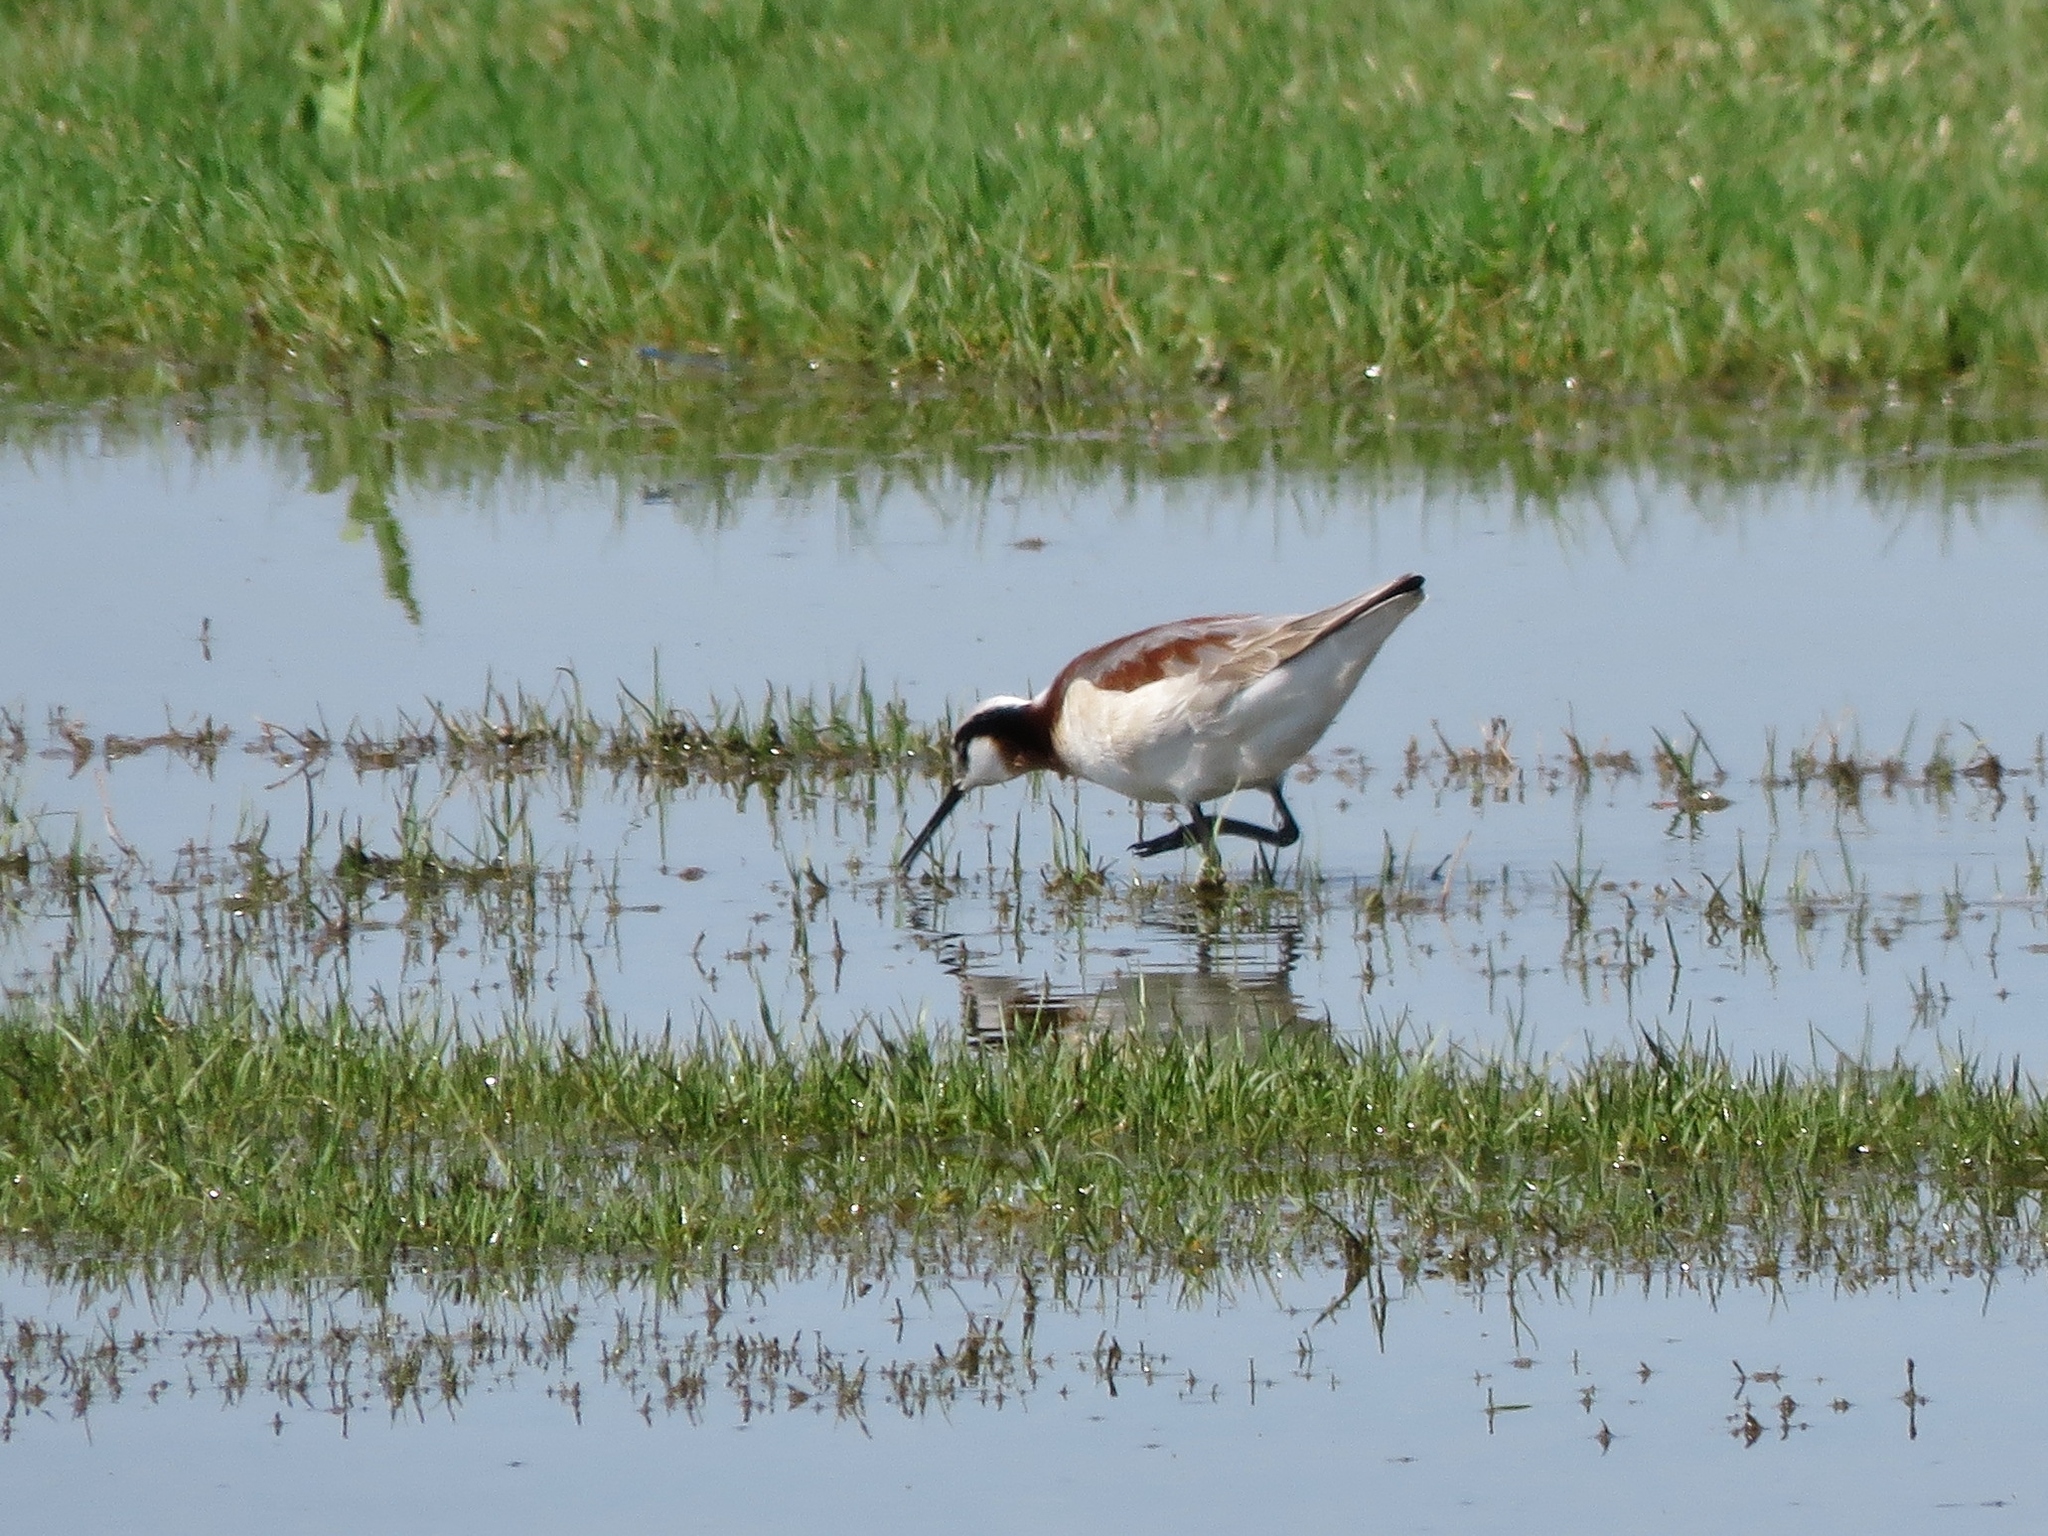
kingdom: Animalia
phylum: Chordata
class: Aves
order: Charadriiformes
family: Scolopacidae
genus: Phalaropus
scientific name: Phalaropus tricolor
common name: Wilson's phalarope
